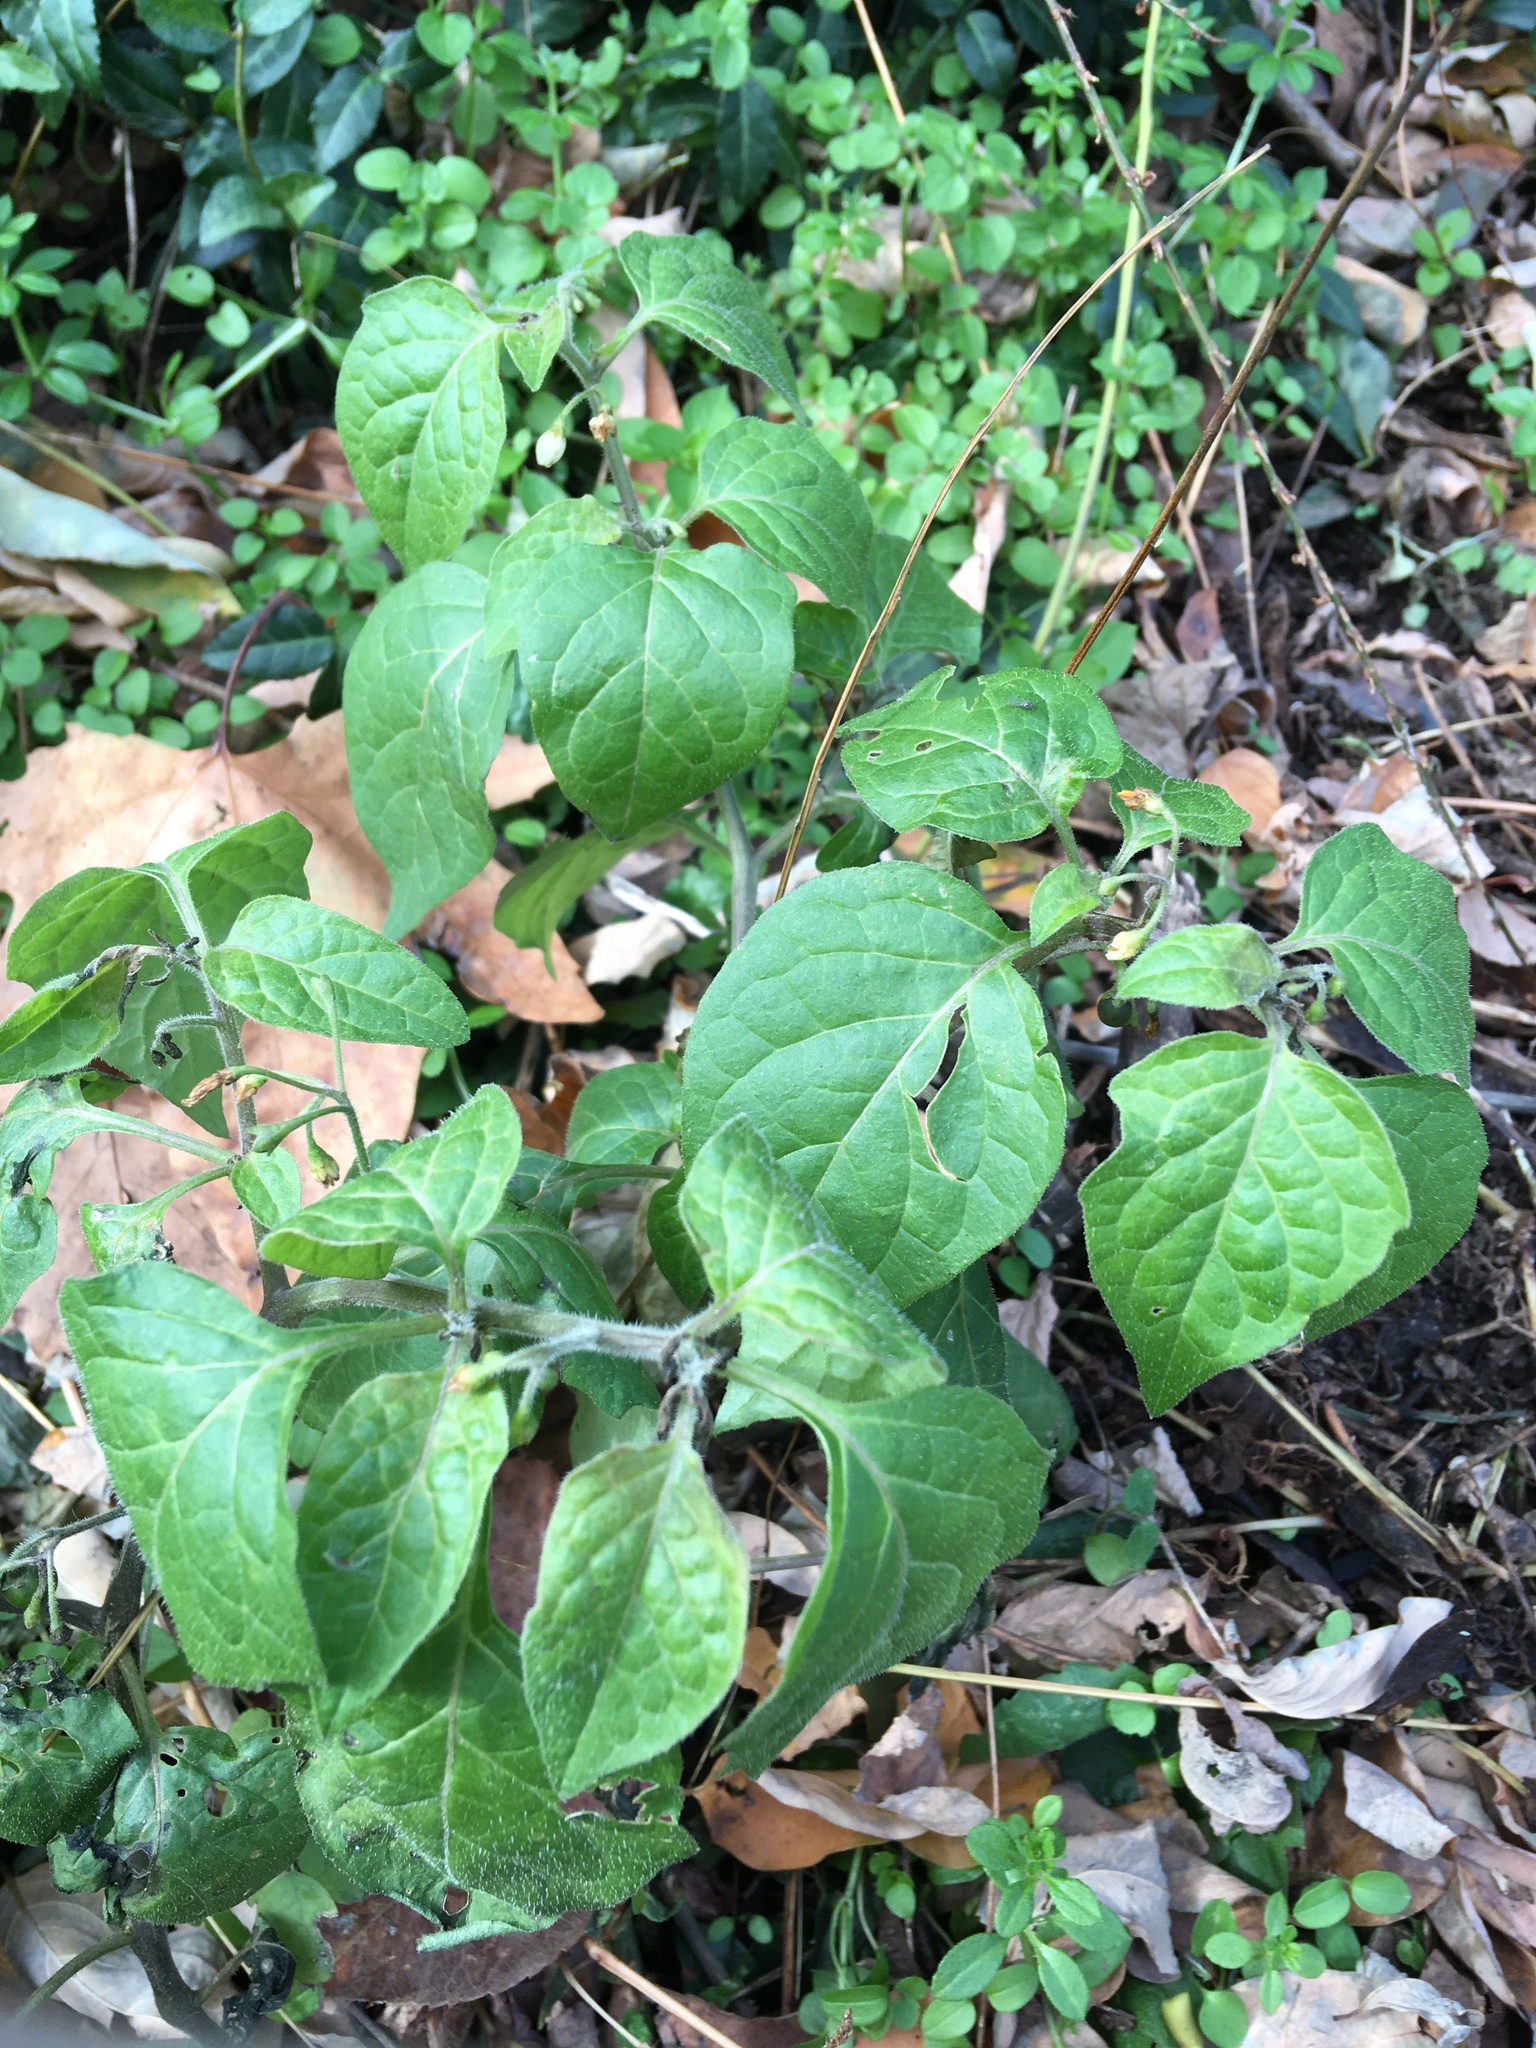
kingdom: Plantae
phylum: Tracheophyta
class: Magnoliopsida
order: Solanales
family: Solanaceae
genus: Solanum
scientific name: Solanum nigrum
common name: Black nightshade
